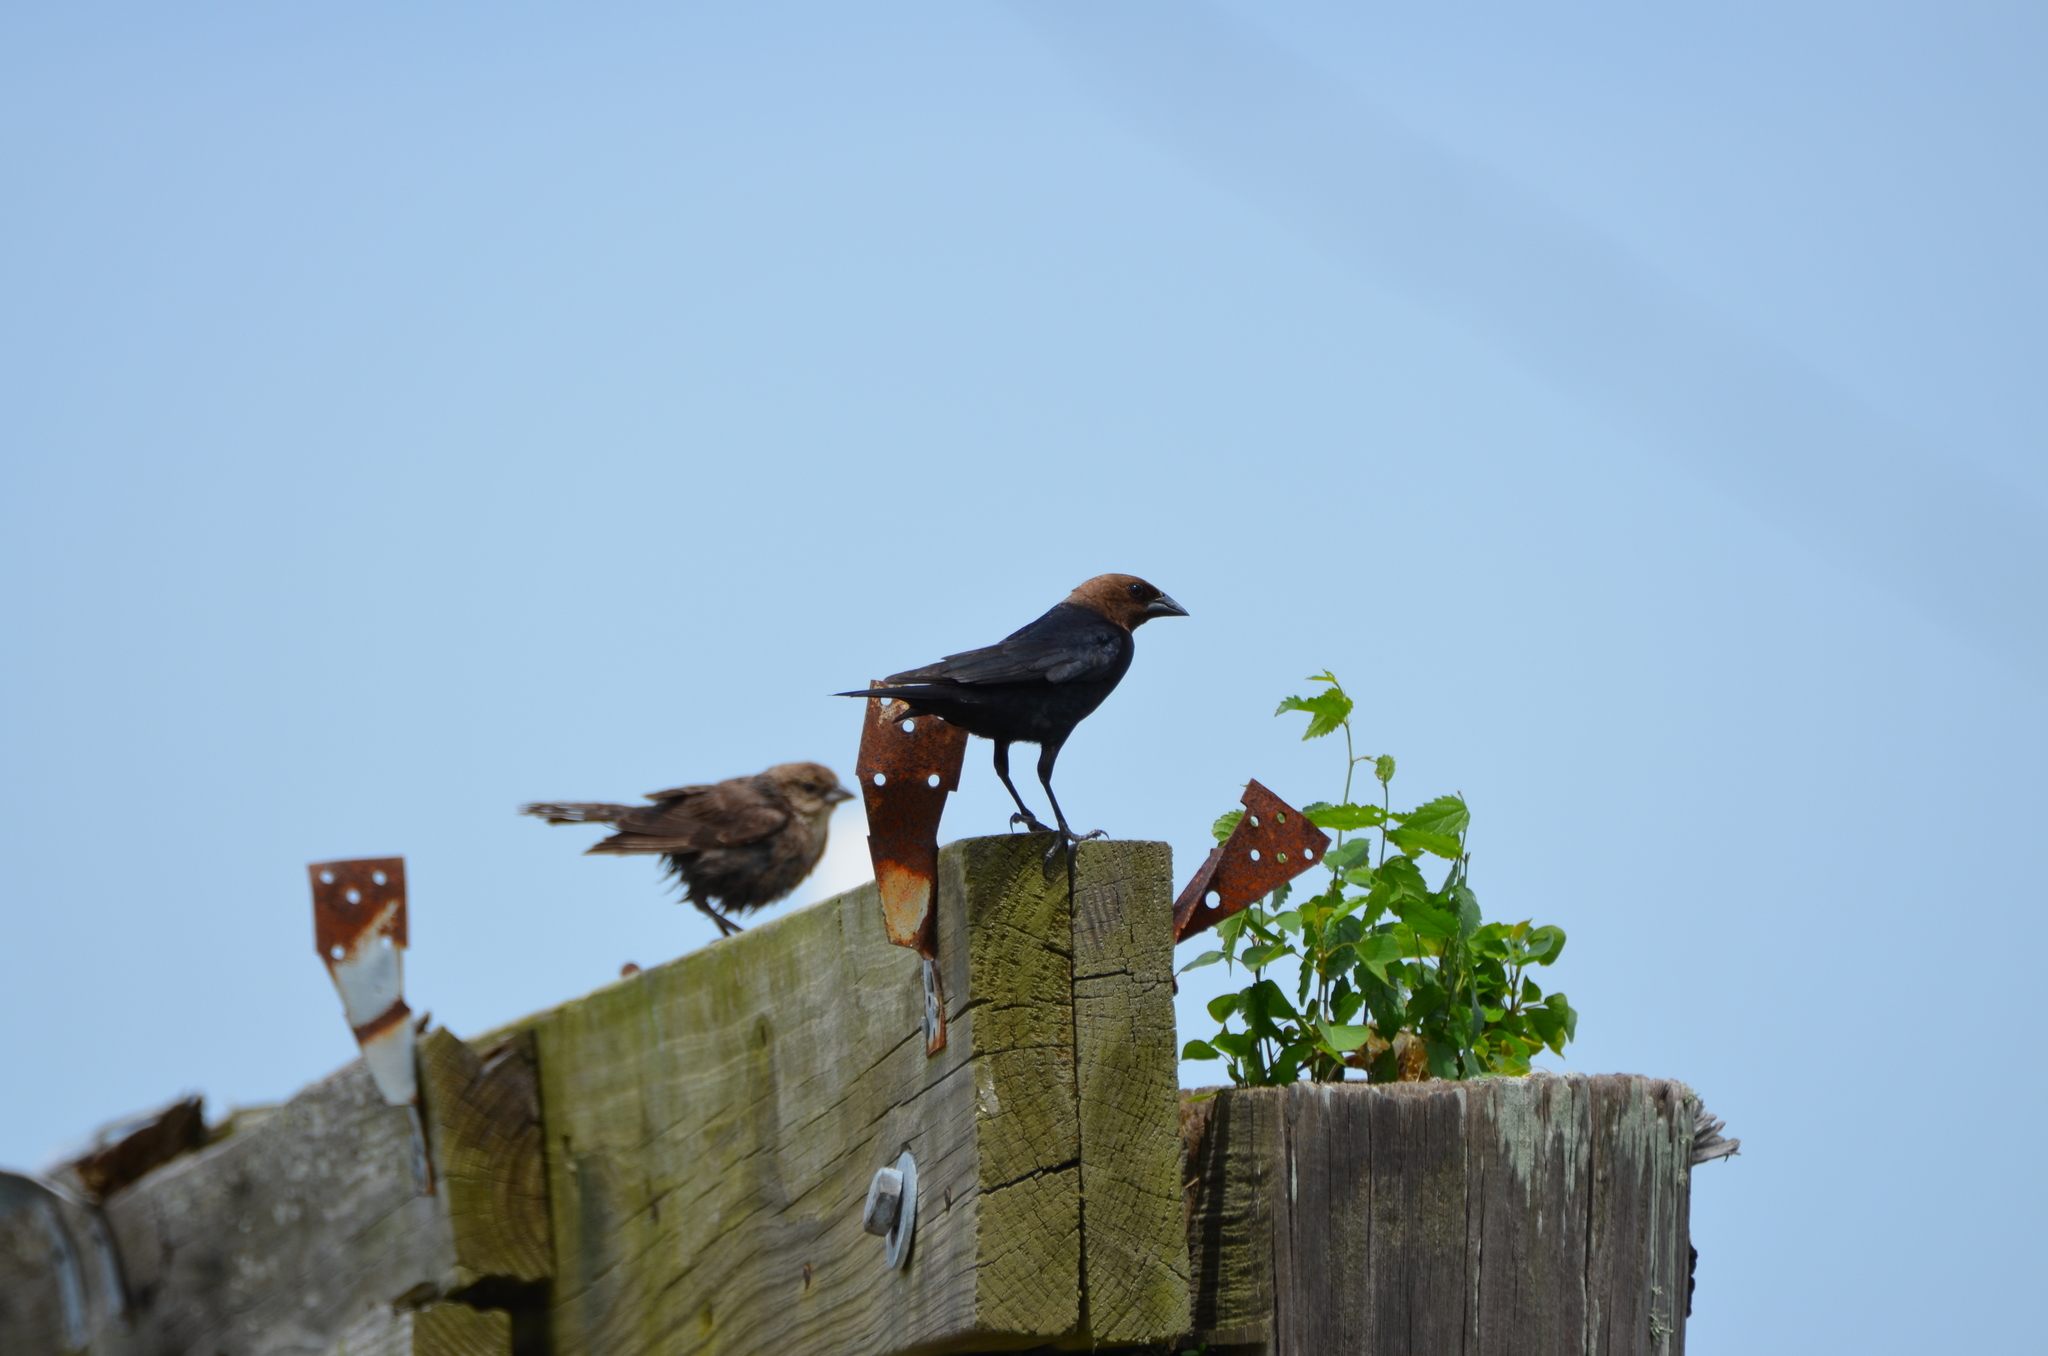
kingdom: Animalia
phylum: Chordata
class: Aves
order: Passeriformes
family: Icteridae
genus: Molothrus
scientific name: Molothrus ater
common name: Brown-headed cowbird
